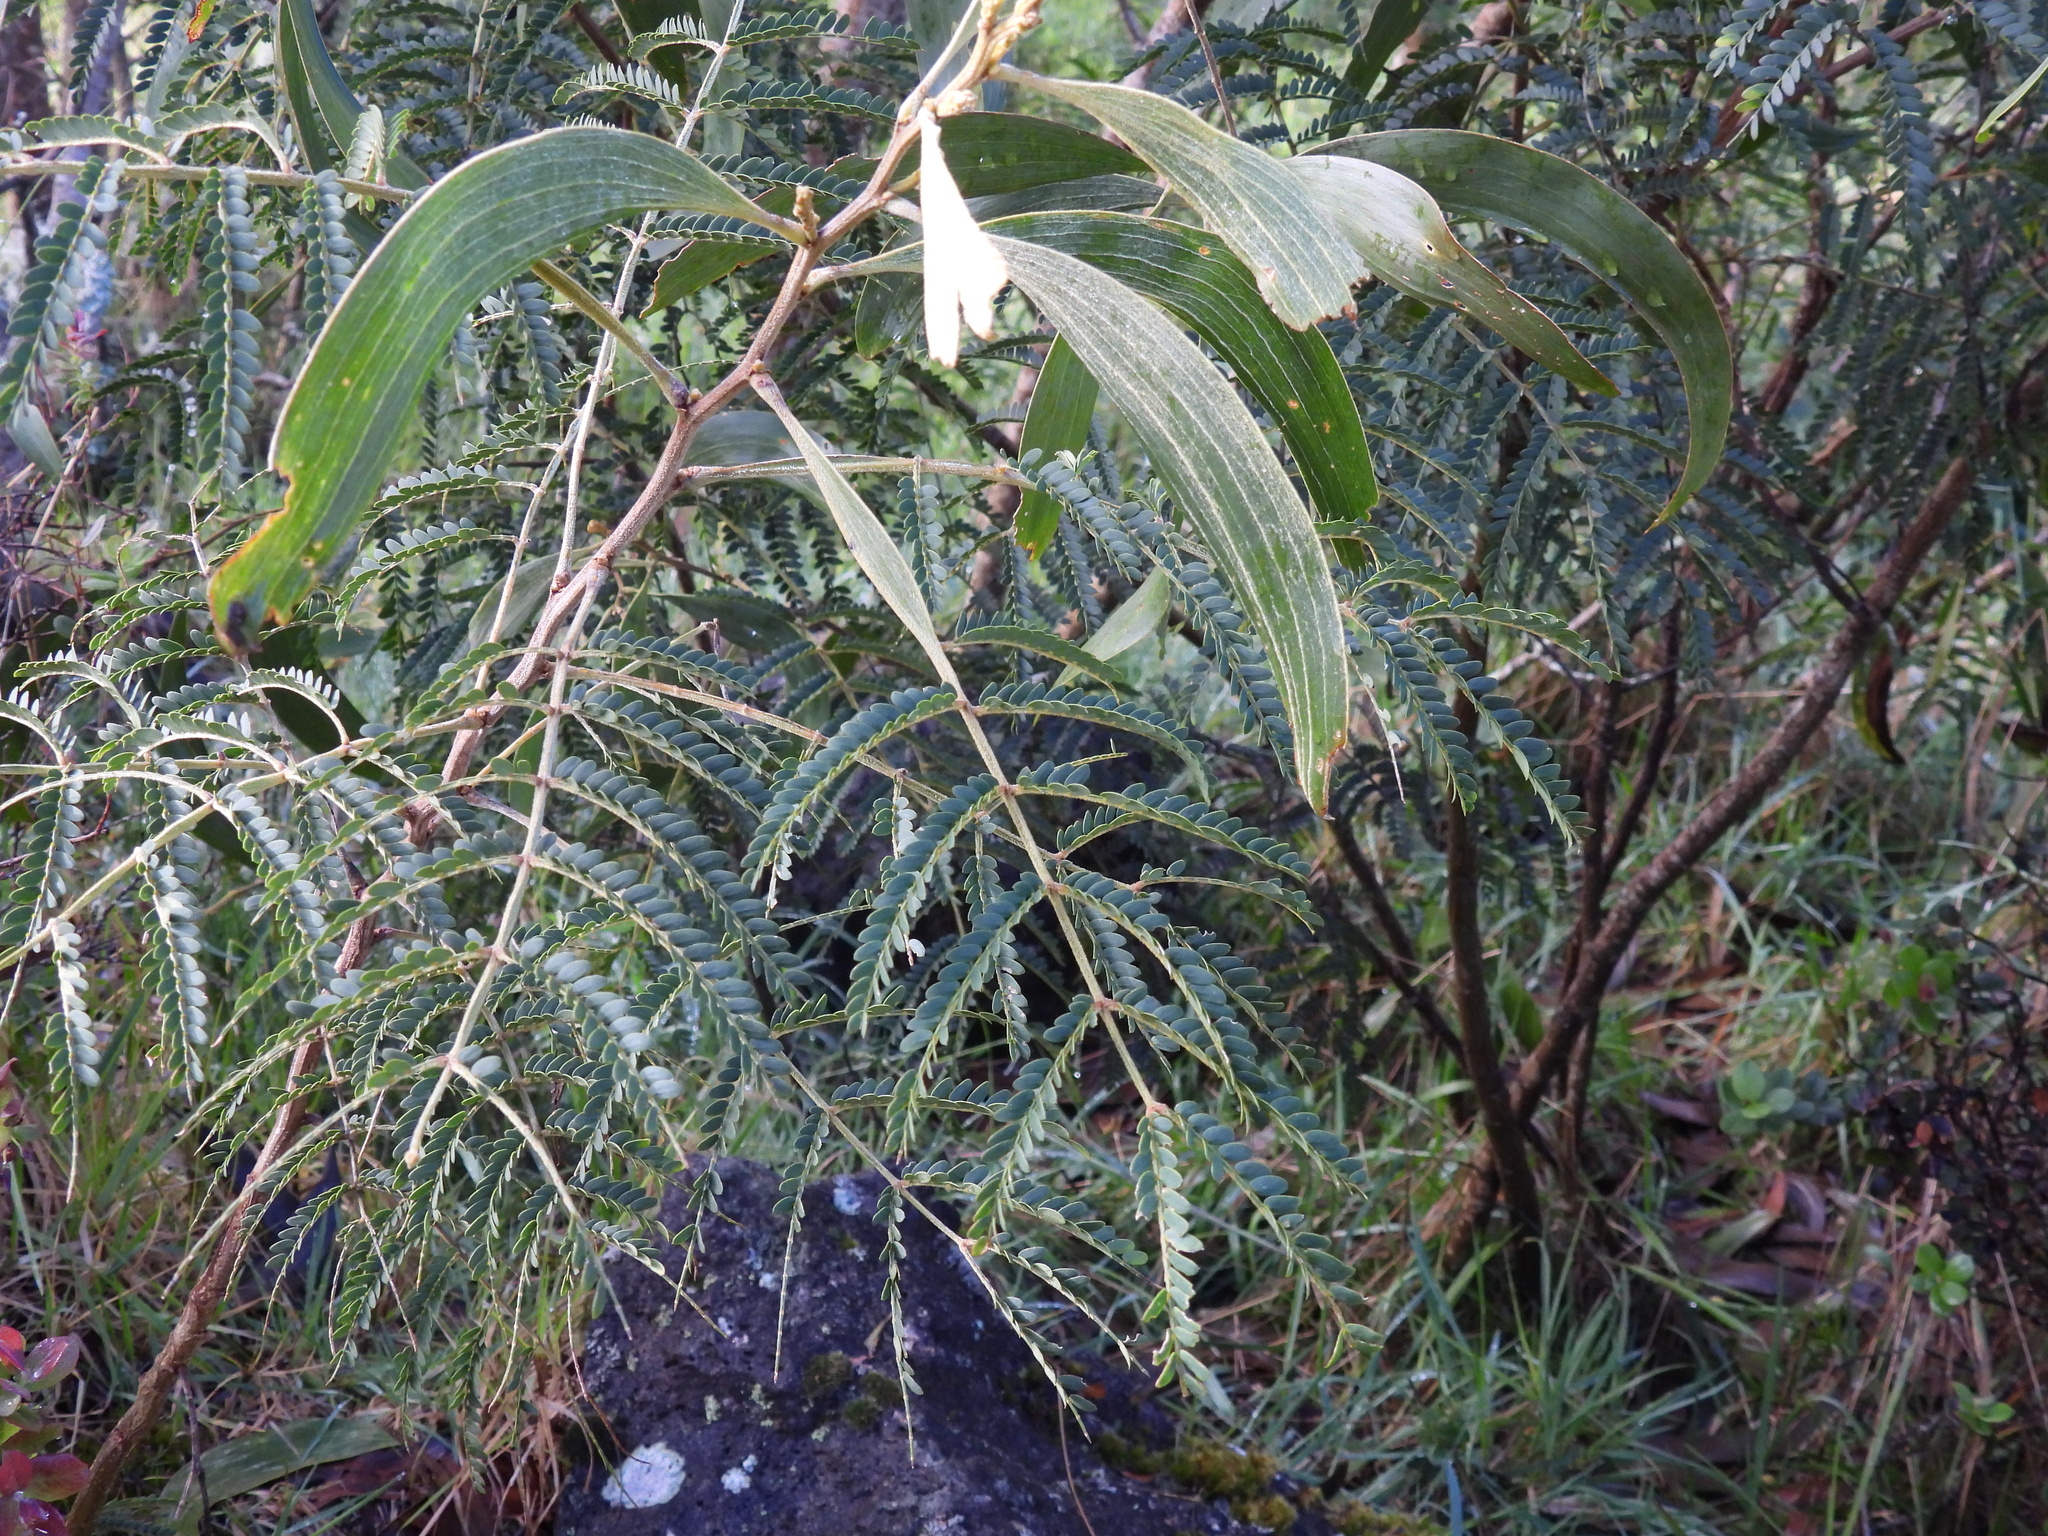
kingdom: Plantae
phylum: Tracheophyta
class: Magnoliopsida
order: Fabales
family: Fabaceae
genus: Acacia
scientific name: Acacia koa
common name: Gray koa
